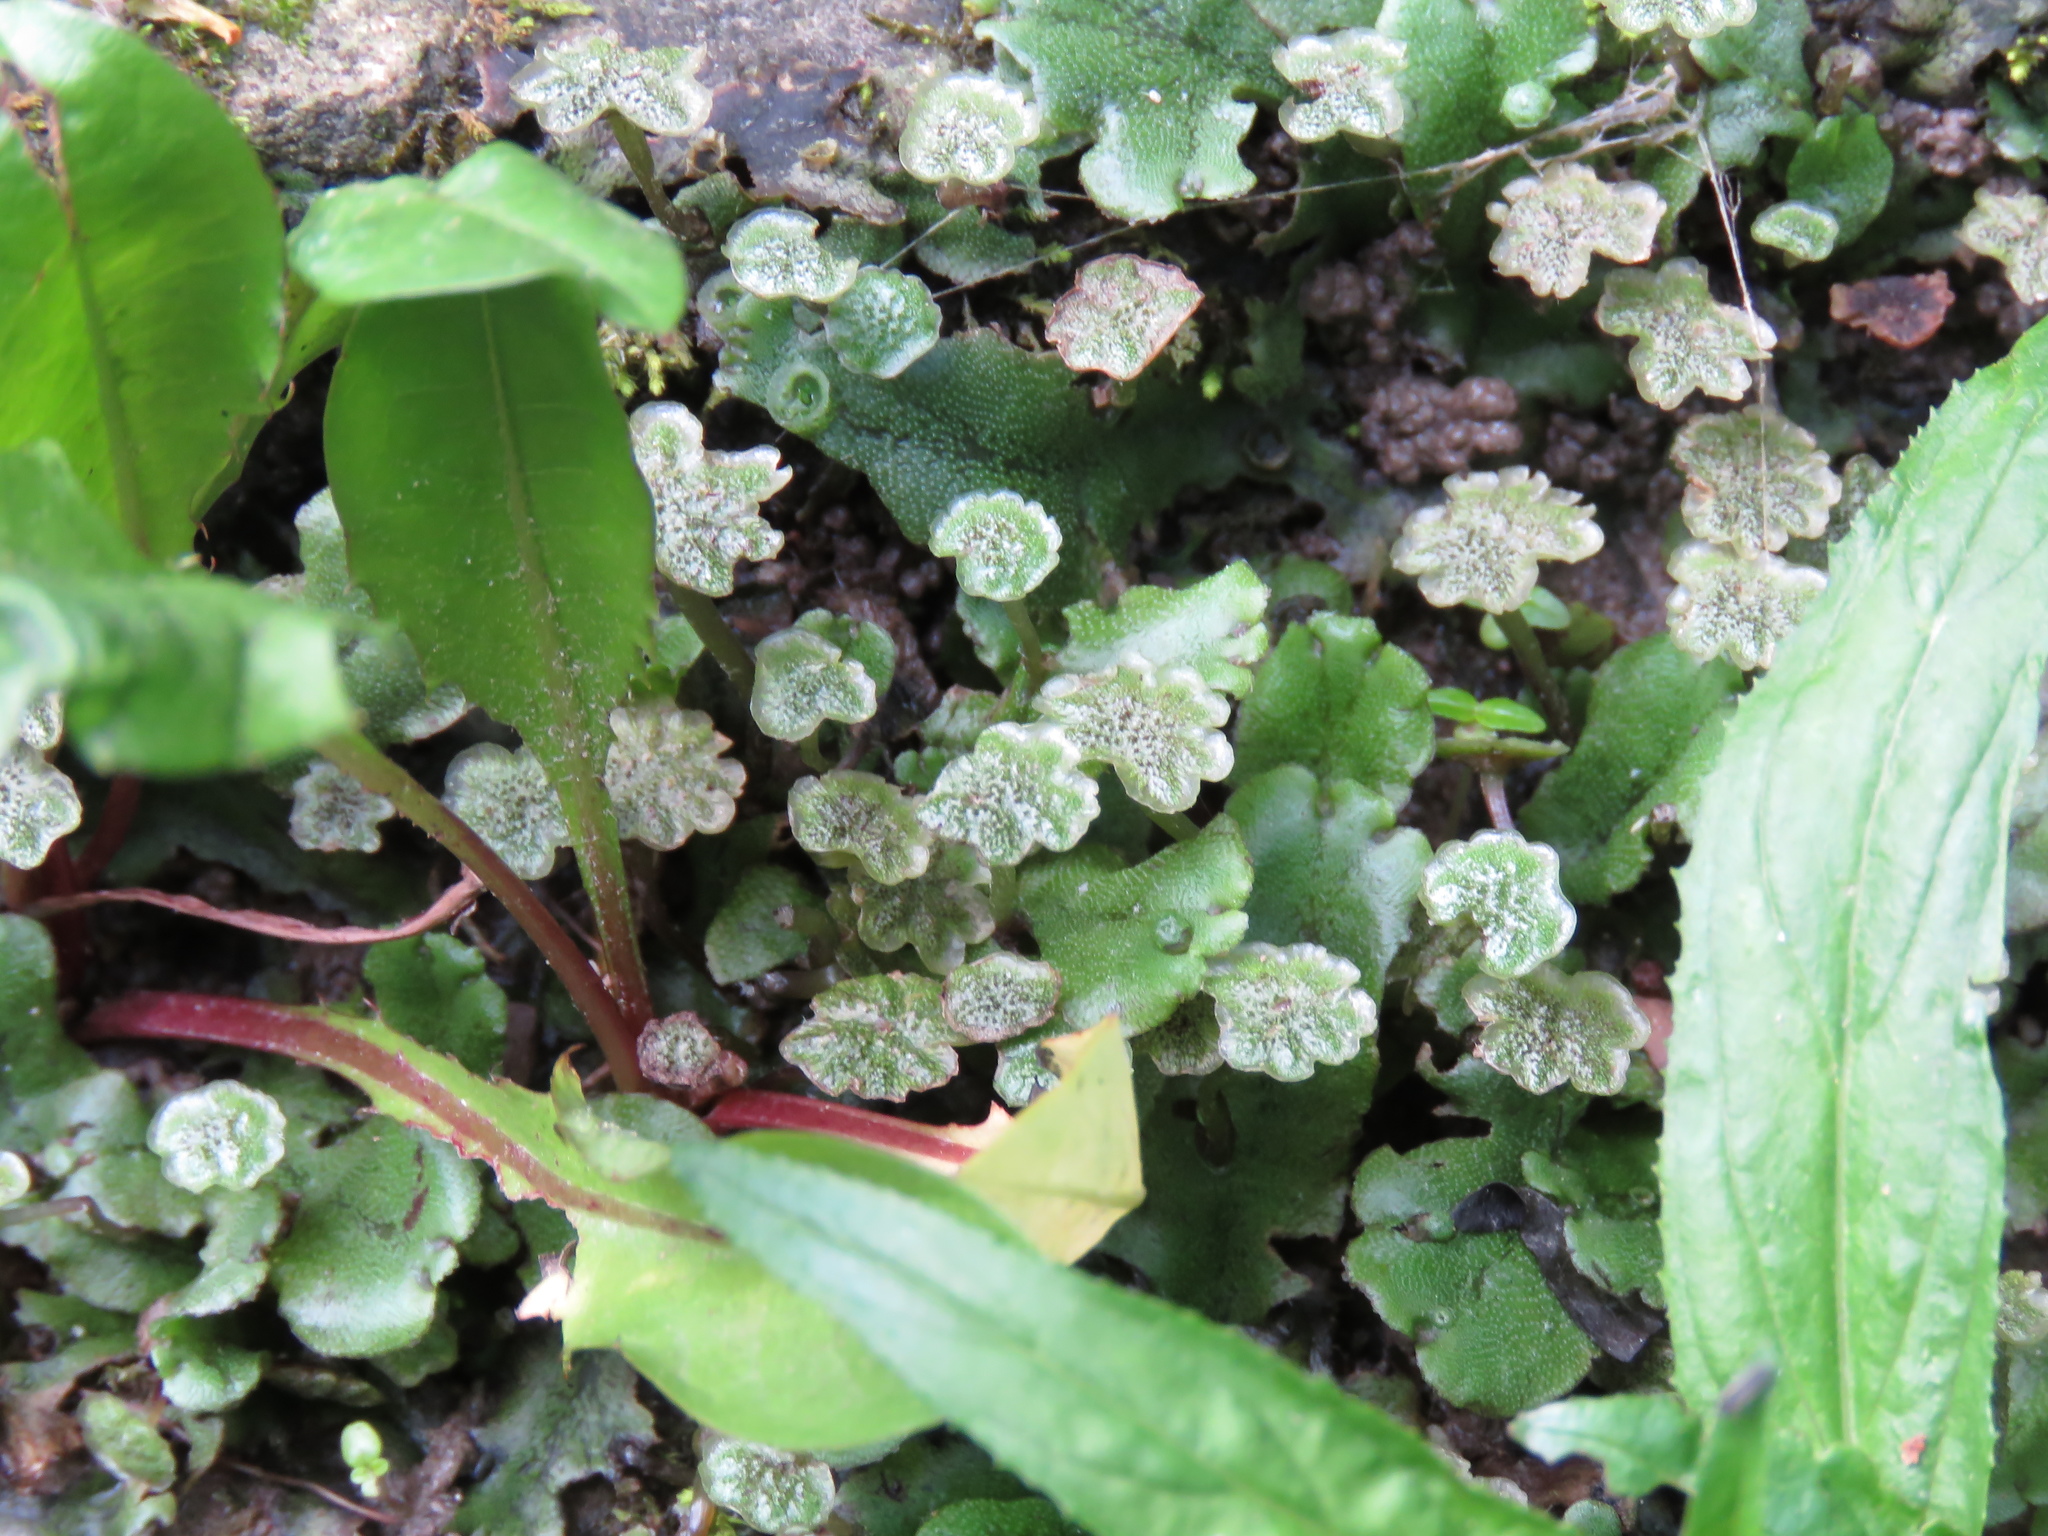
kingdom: Plantae
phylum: Marchantiophyta
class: Marchantiopsida
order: Marchantiales
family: Marchantiaceae
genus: Marchantia
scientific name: Marchantia polymorpha
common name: Common liverwort
